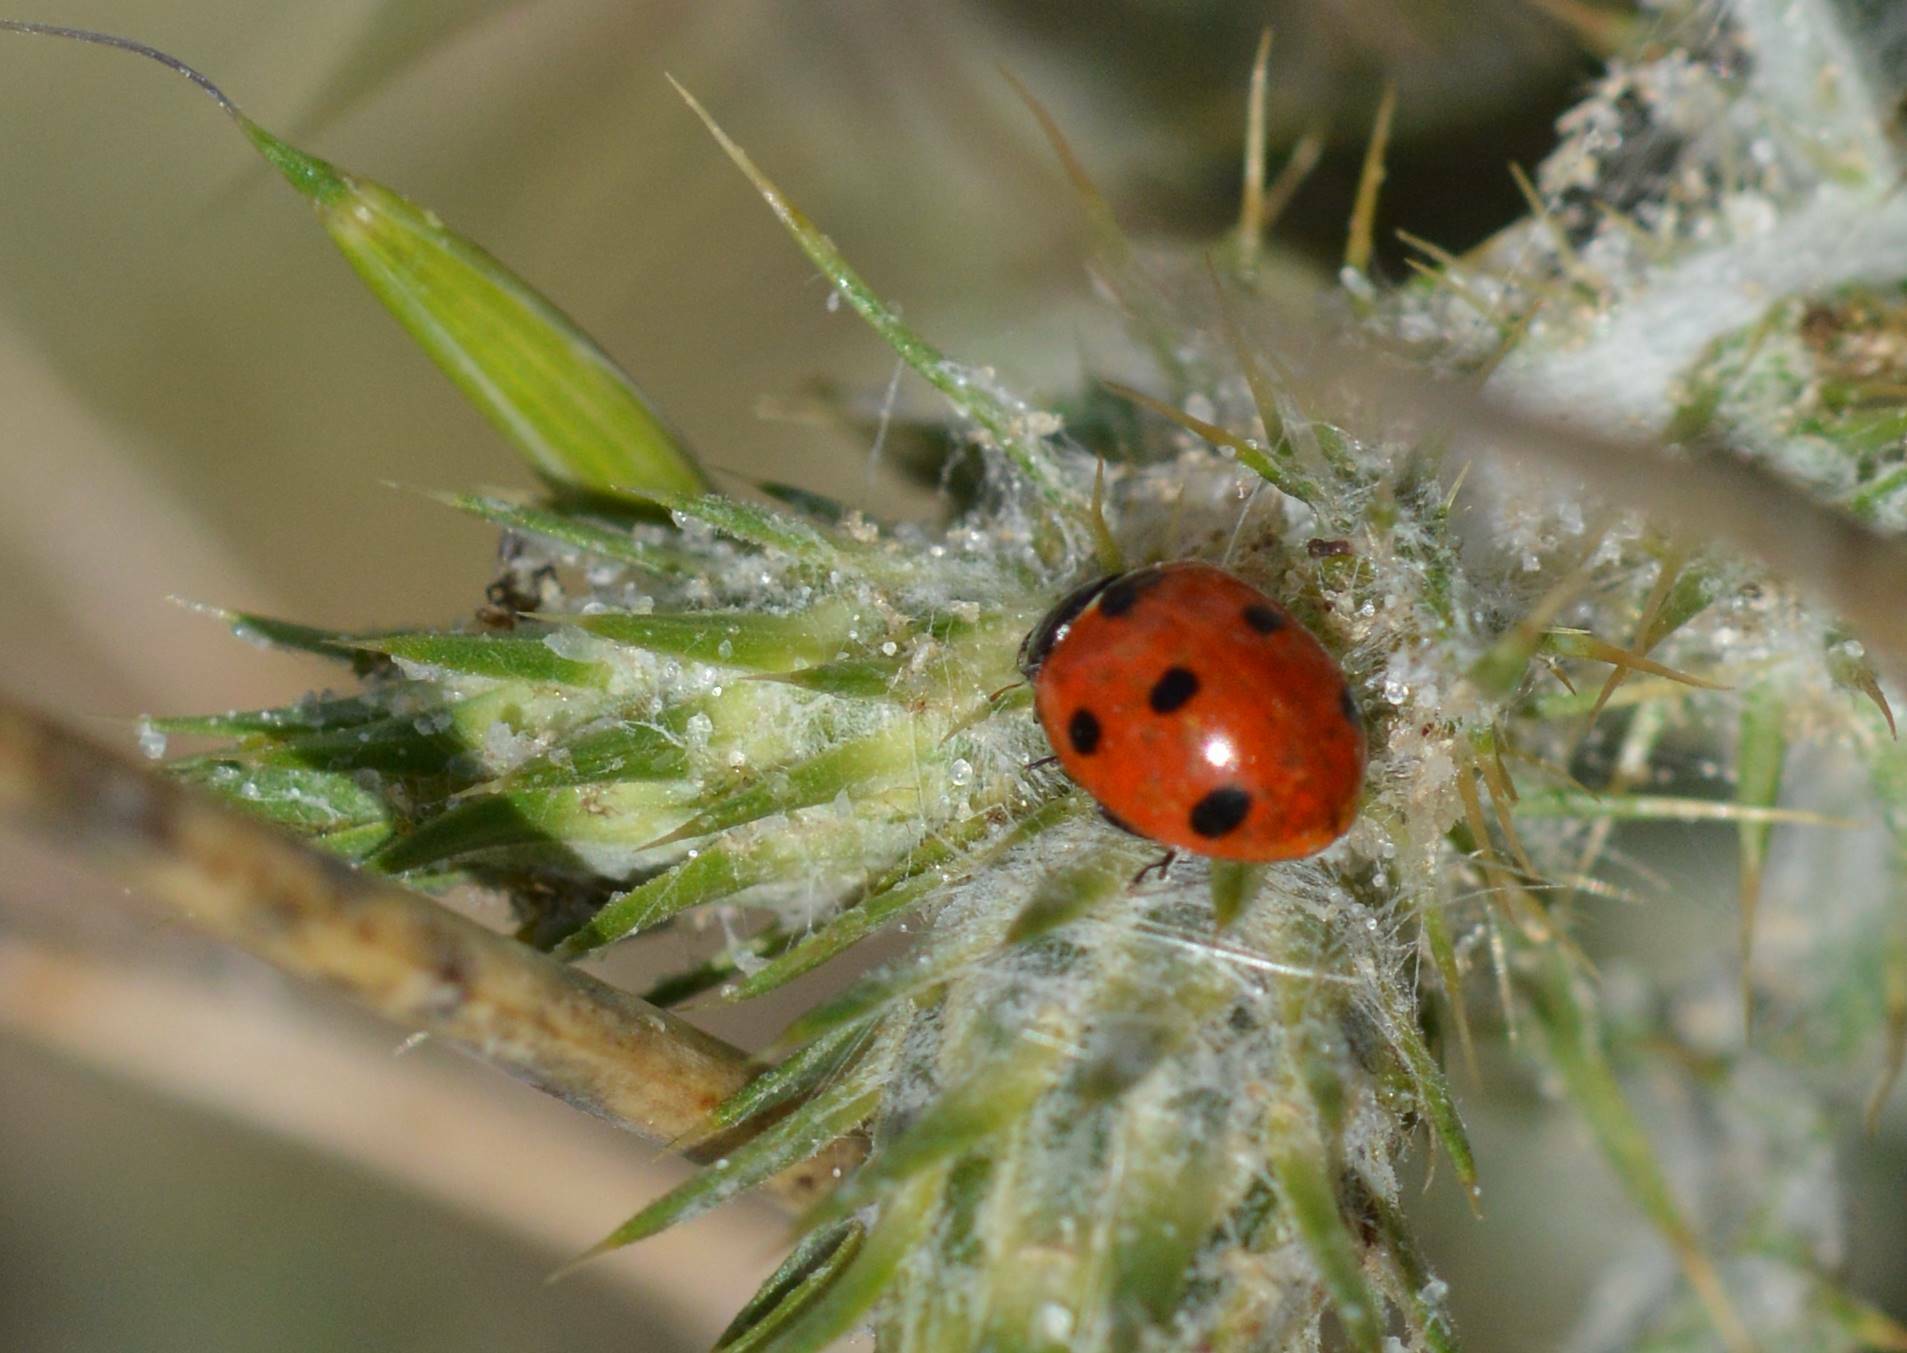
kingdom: Animalia
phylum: Arthropoda
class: Insecta
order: Coleoptera
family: Coccinellidae
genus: Coccinella
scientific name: Coccinella algerica
